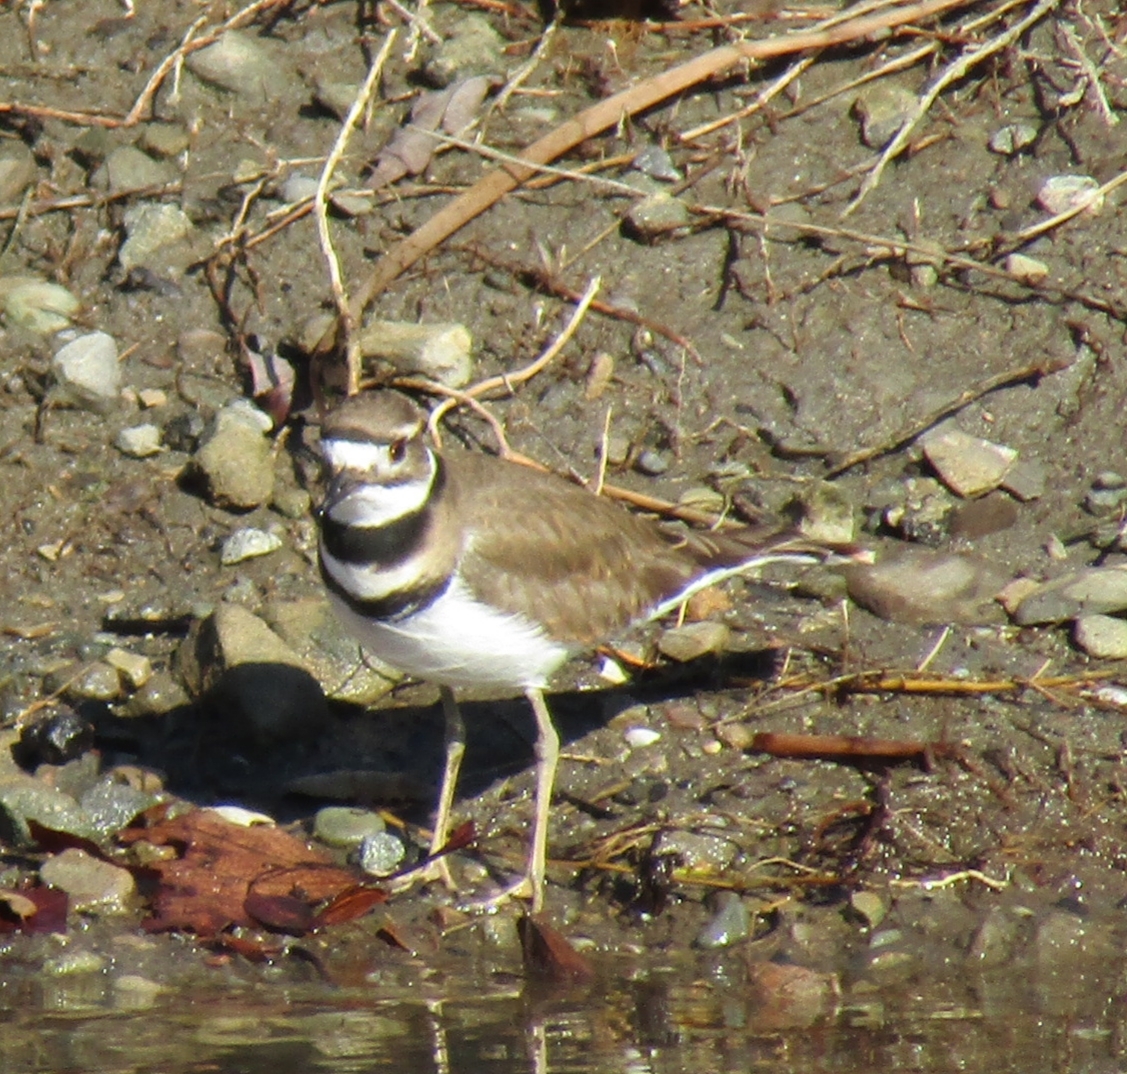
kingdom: Animalia
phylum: Chordata
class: Aves
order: Charadriiformes
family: Charadriidae
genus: Charadrius
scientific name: Charadrius vociferus
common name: Killdeer
